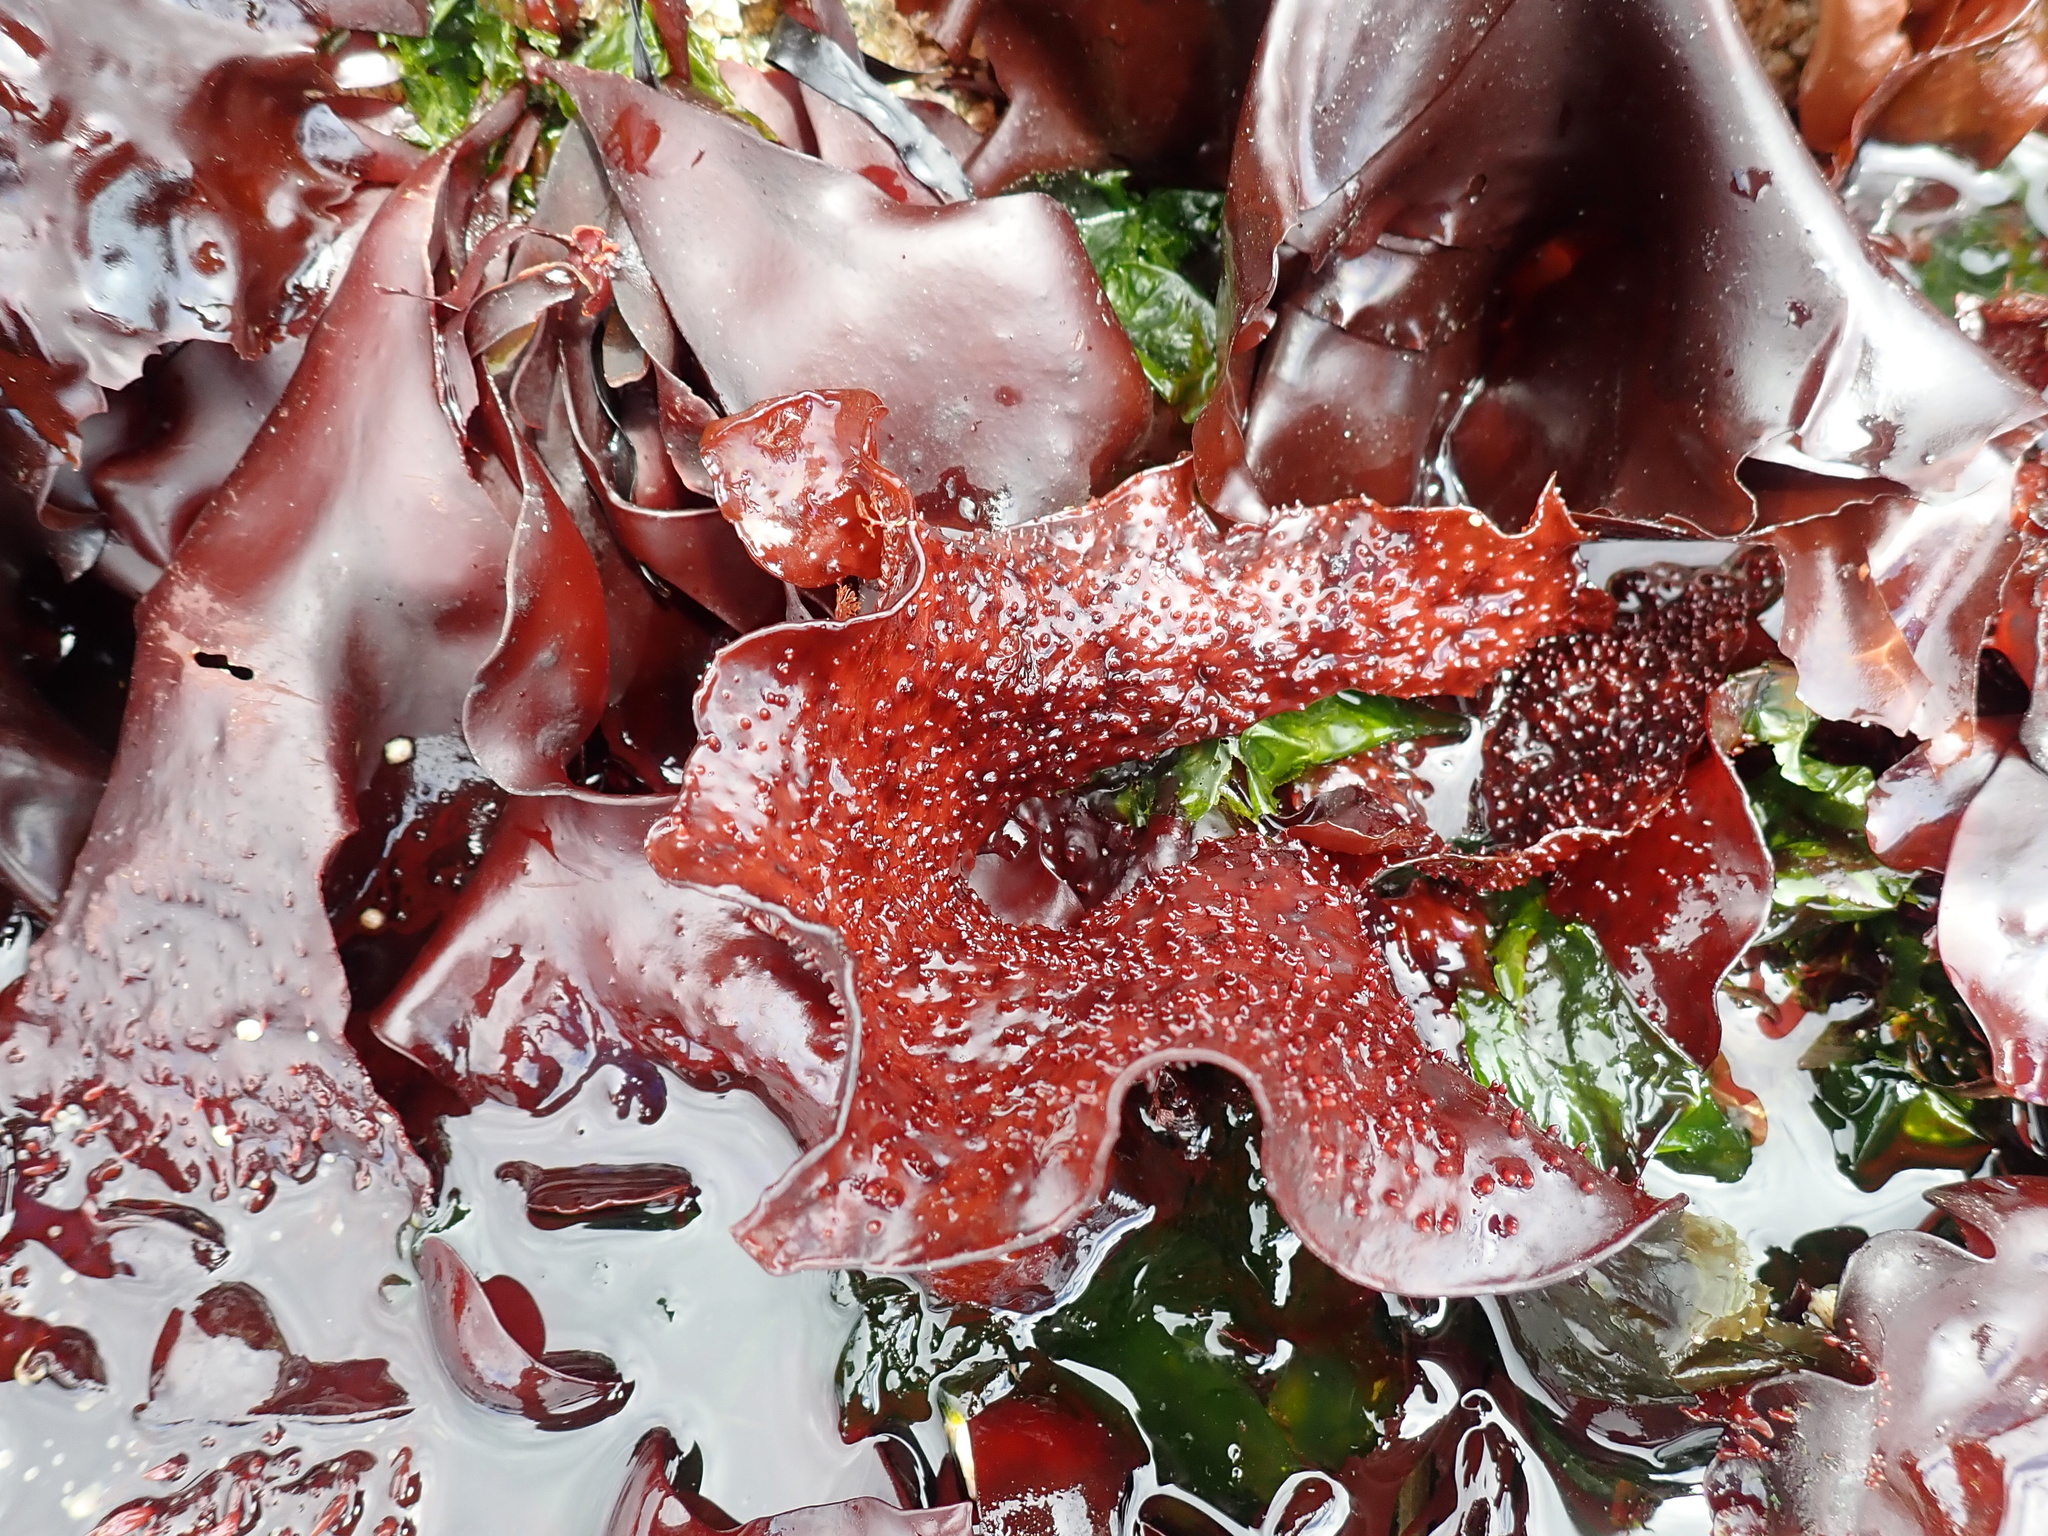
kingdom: Plantae
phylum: Rhodophyta
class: Florideophyceae
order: Gigartinales
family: Gigartinaceae
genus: Chondracanthus
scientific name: Chondracanthus exasperatus
